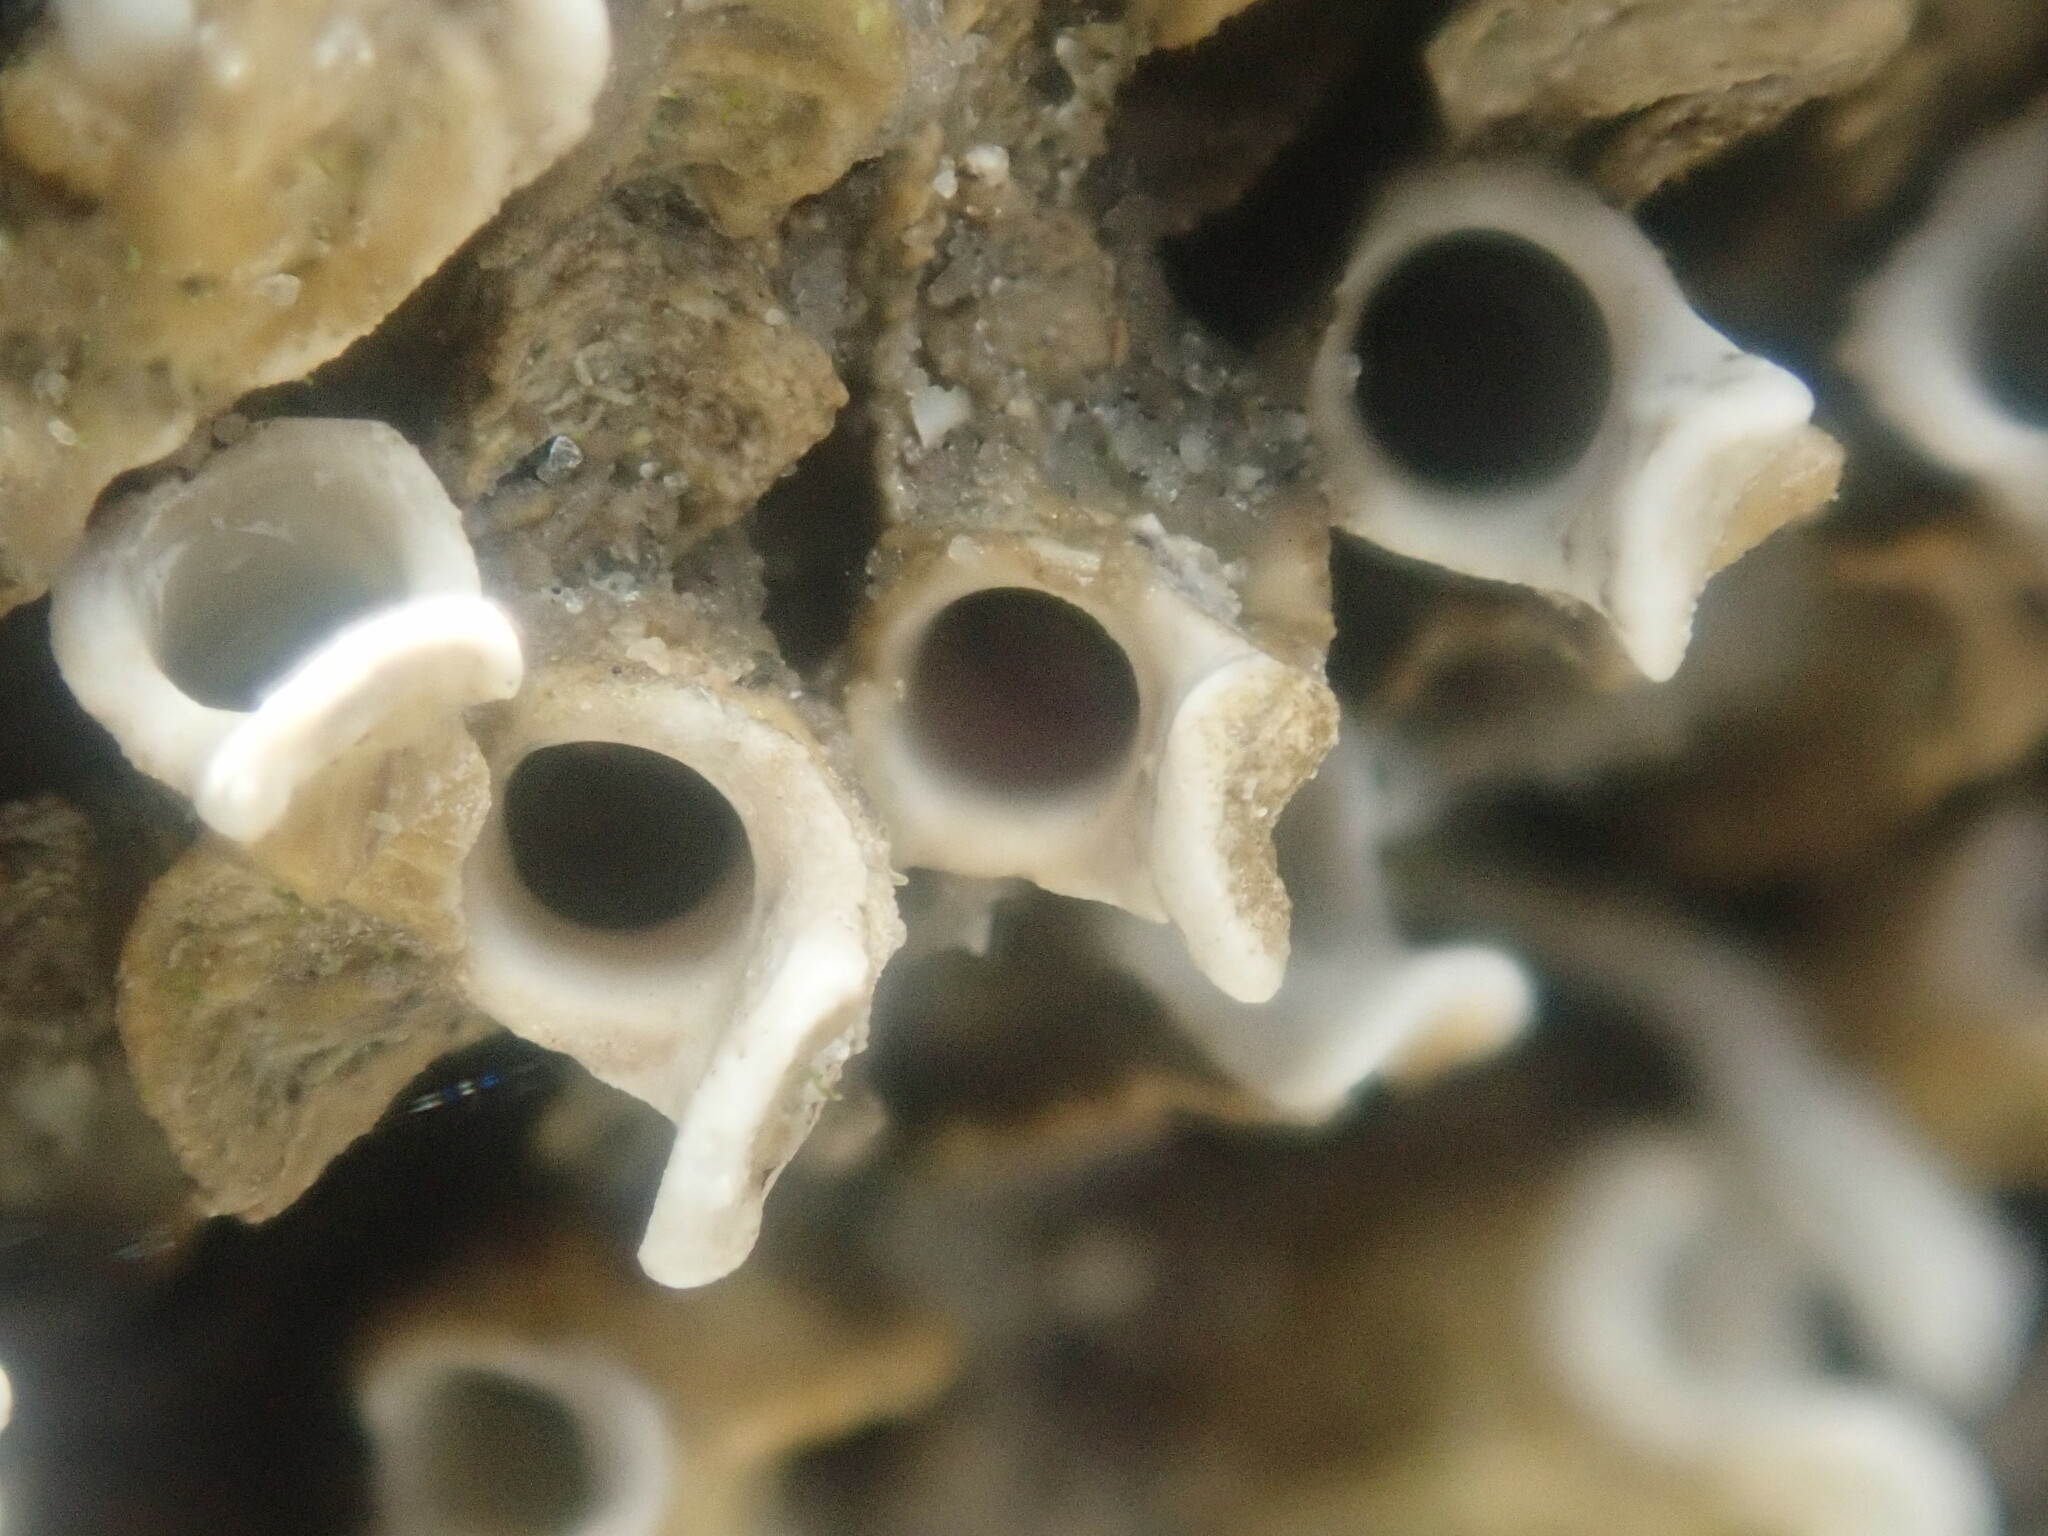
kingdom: Animalia
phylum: Annelida
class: Polychaeta
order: Sabellida
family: Serpulidae
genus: Galeolaria
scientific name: Galeolaria caespitosa
